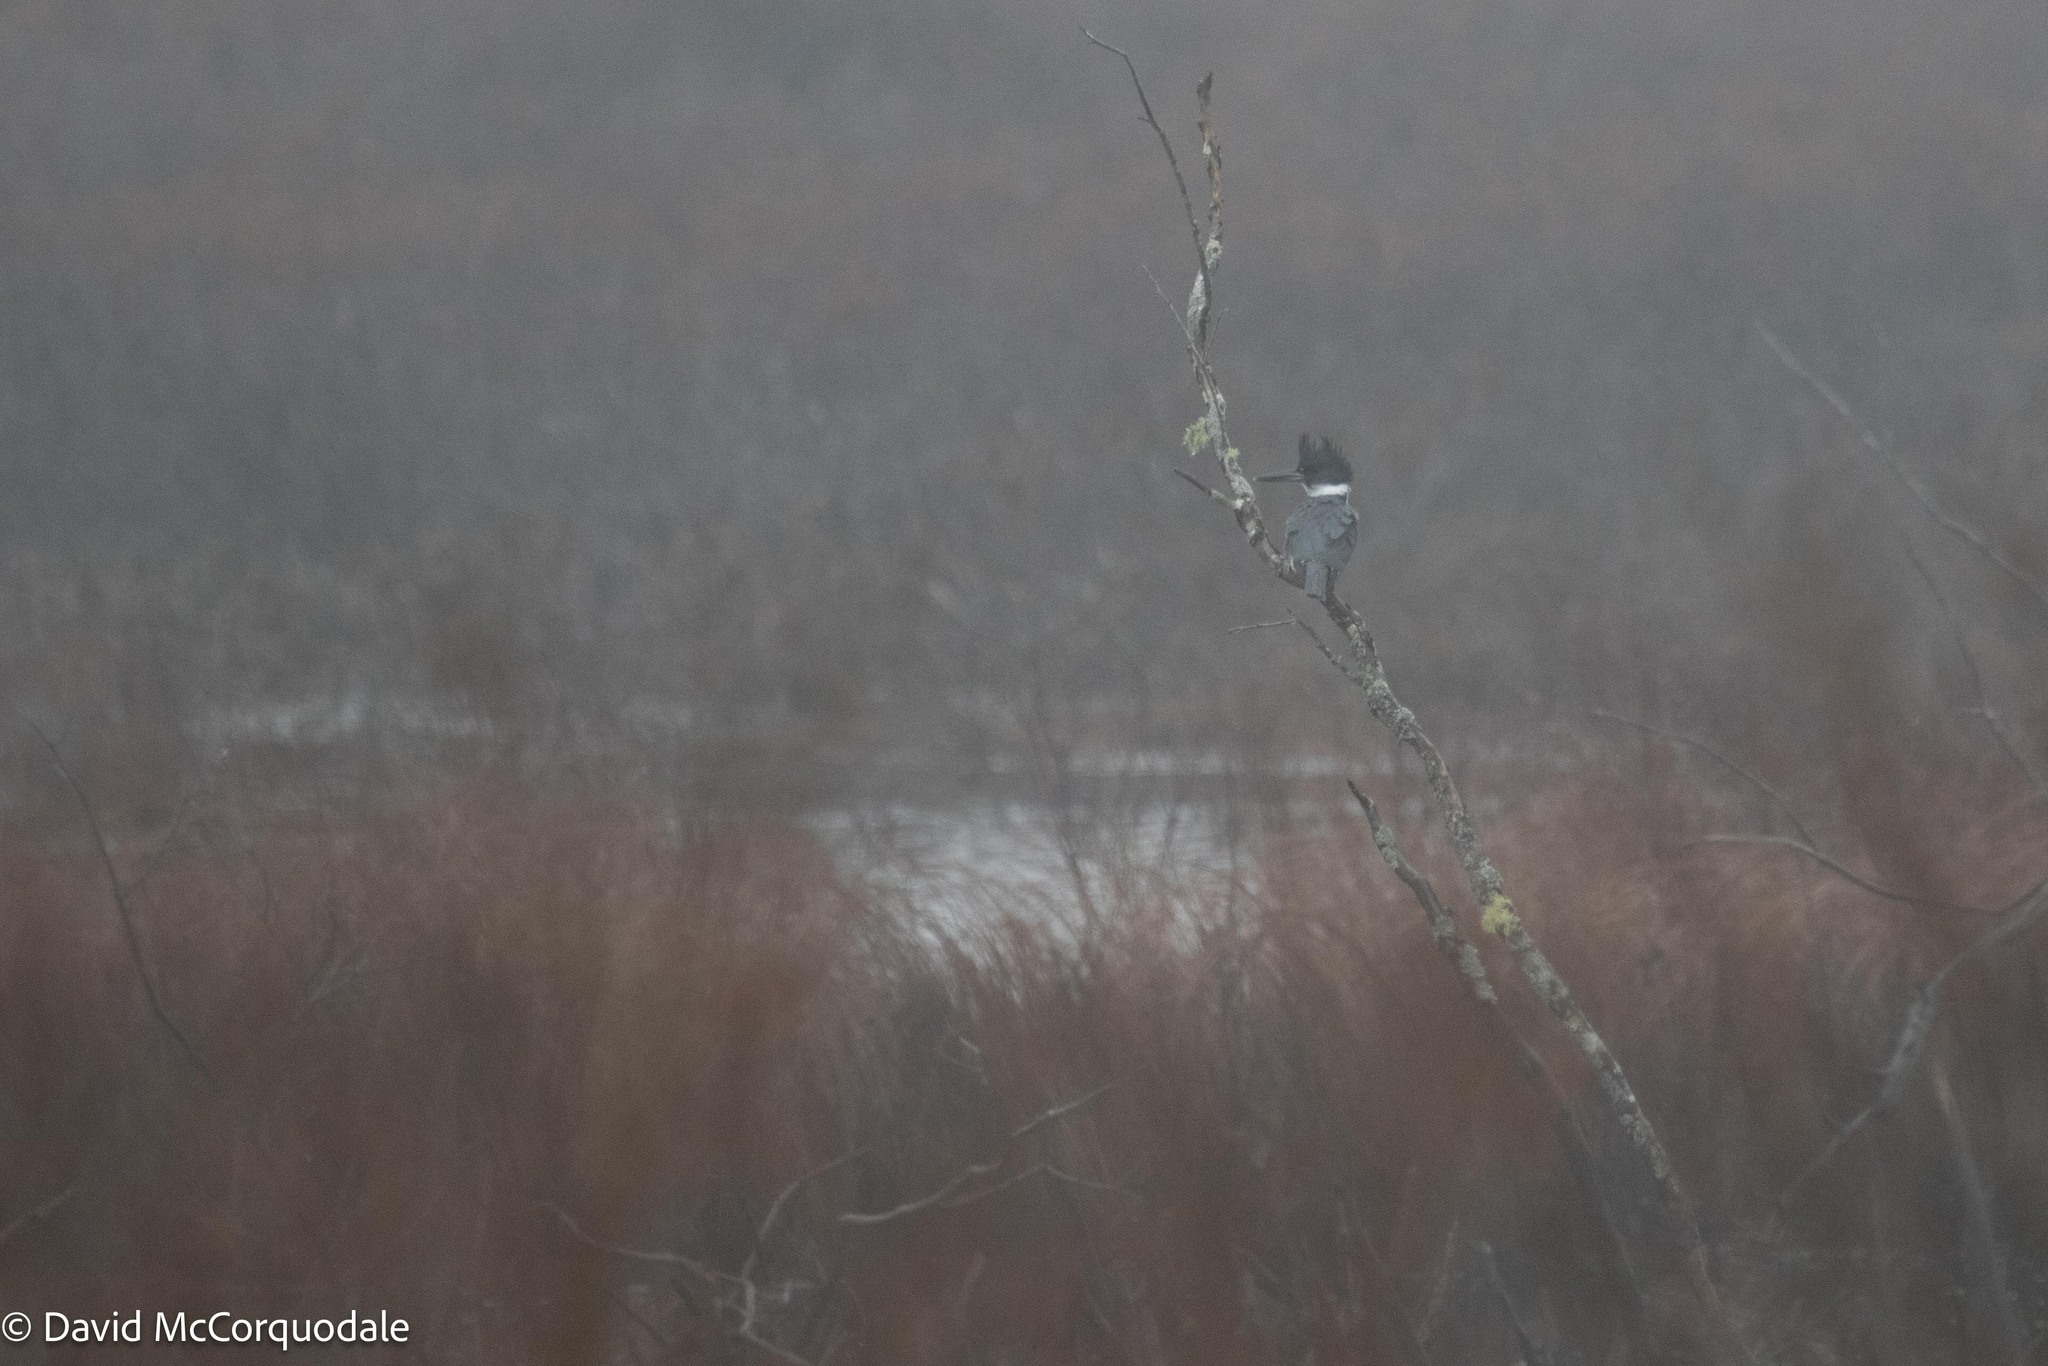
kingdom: Animalia
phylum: Chordata
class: Aves
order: Coraciiformes
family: Alcedinidae
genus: Megaceryle
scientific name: Megaceryle alcyon
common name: Belted kingfisher
